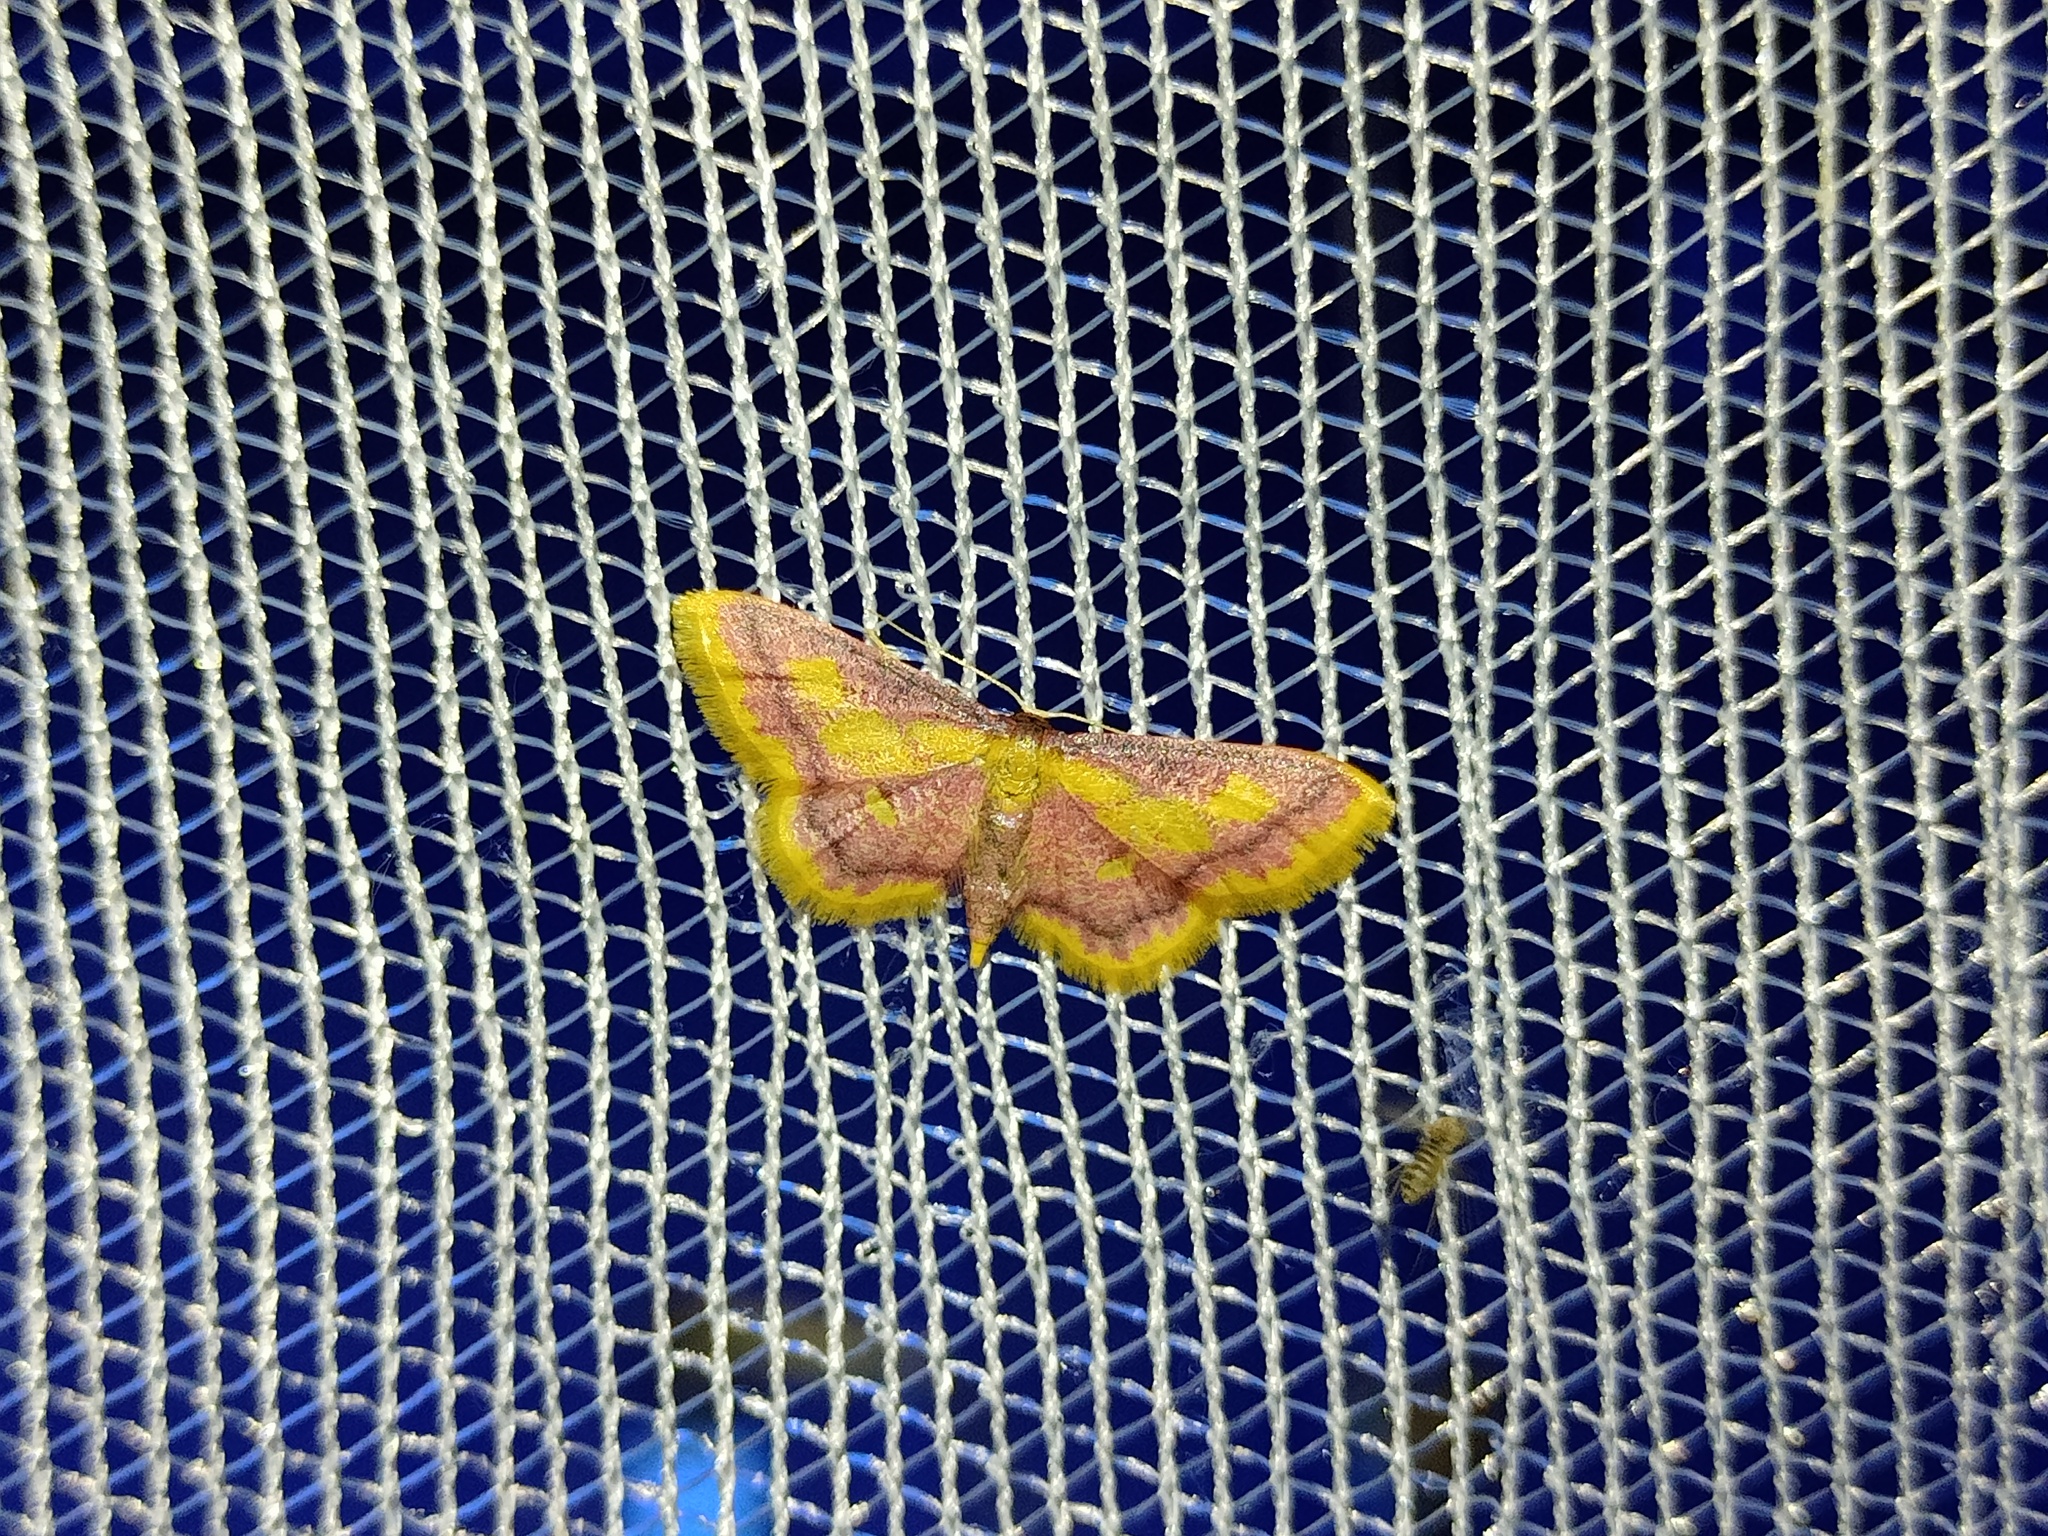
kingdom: Animalia
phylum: Arthropoda
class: Insecta
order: Lepidoptera
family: Geometridae
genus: Idaea
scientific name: Idaea muricata
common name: Purple-bordered gold
